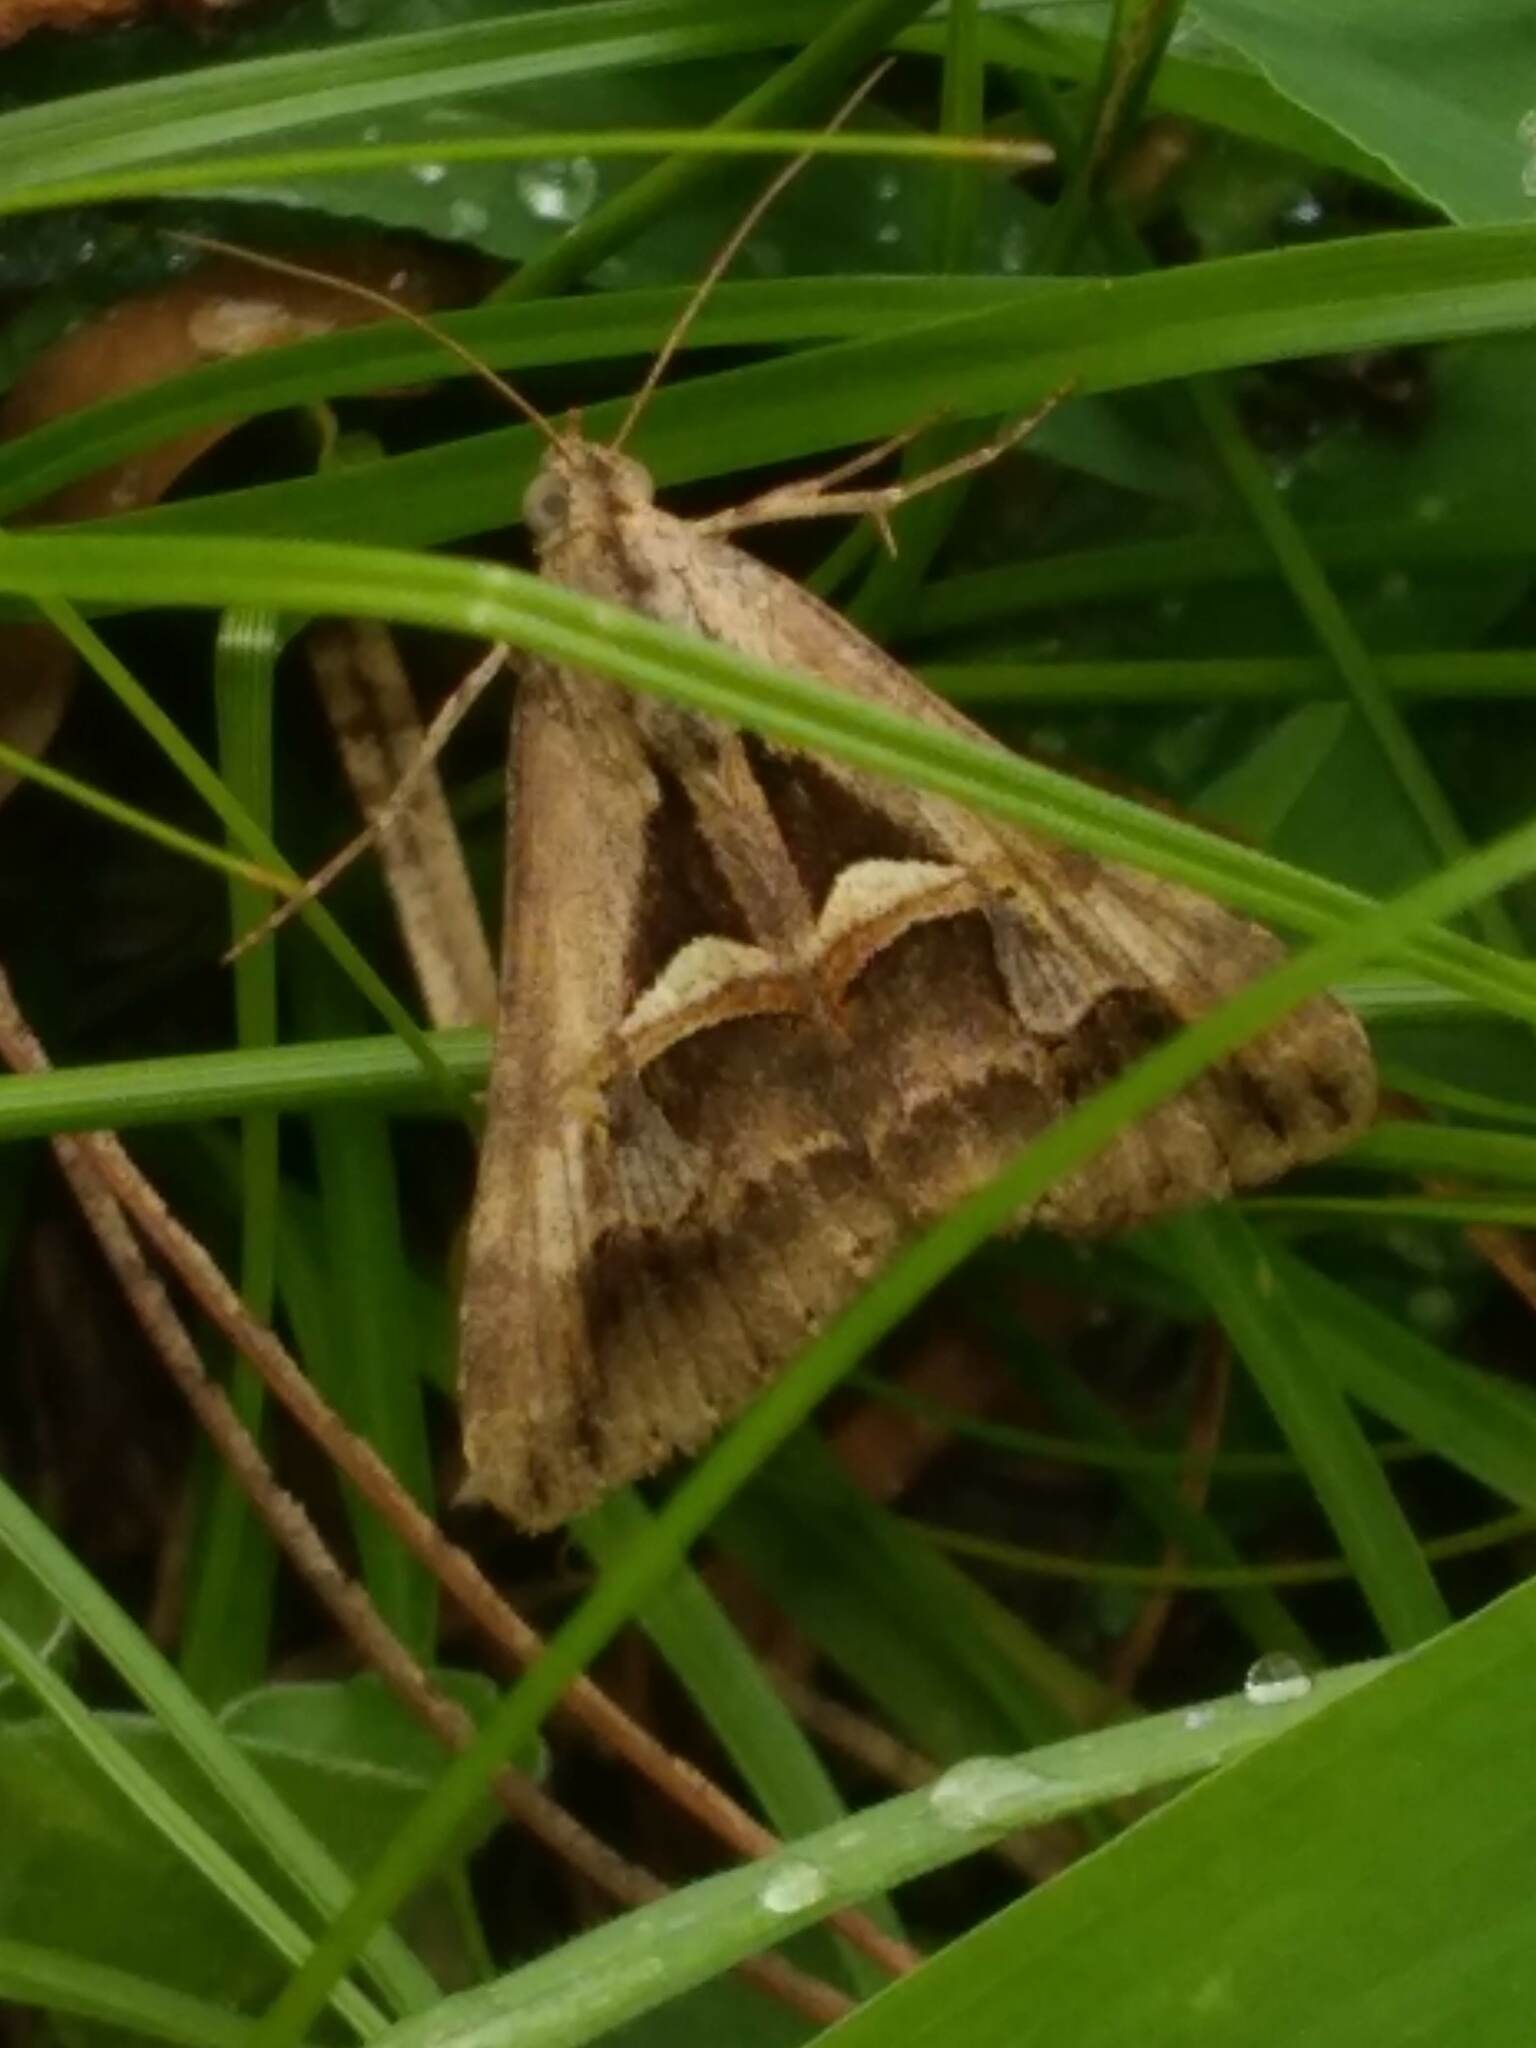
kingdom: Animalia
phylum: Arthropoda
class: Insecta
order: Lepidoptera
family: Erebidae
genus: Melipotis
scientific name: Melipotis cellaris
